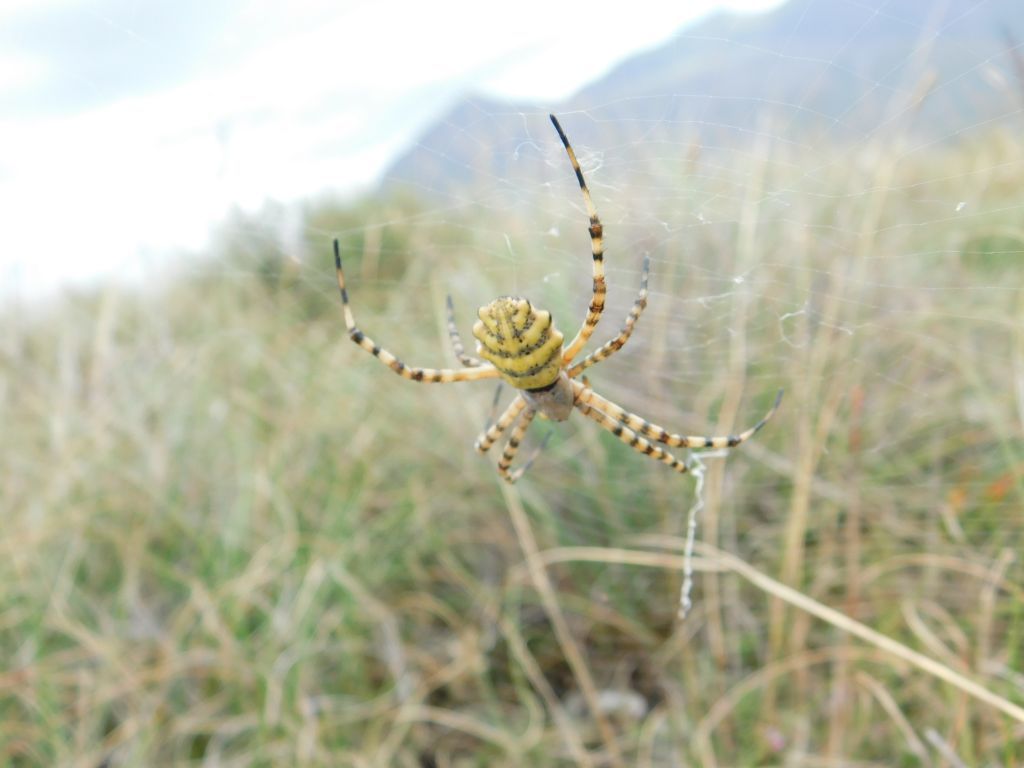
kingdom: Animalia
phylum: Arthropoda
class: Arachnida
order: Araneae
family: Araneidae
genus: Argiope
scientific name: Argiope australis
